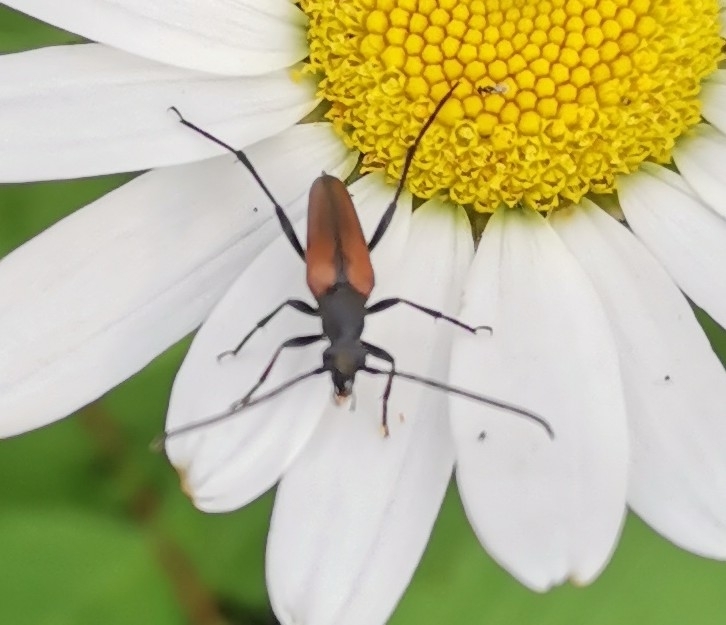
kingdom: Animalia
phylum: Arthropoda
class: Insecta
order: Coleoptera
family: Cerambycidae
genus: Stenurella
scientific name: Stenurella melanura
